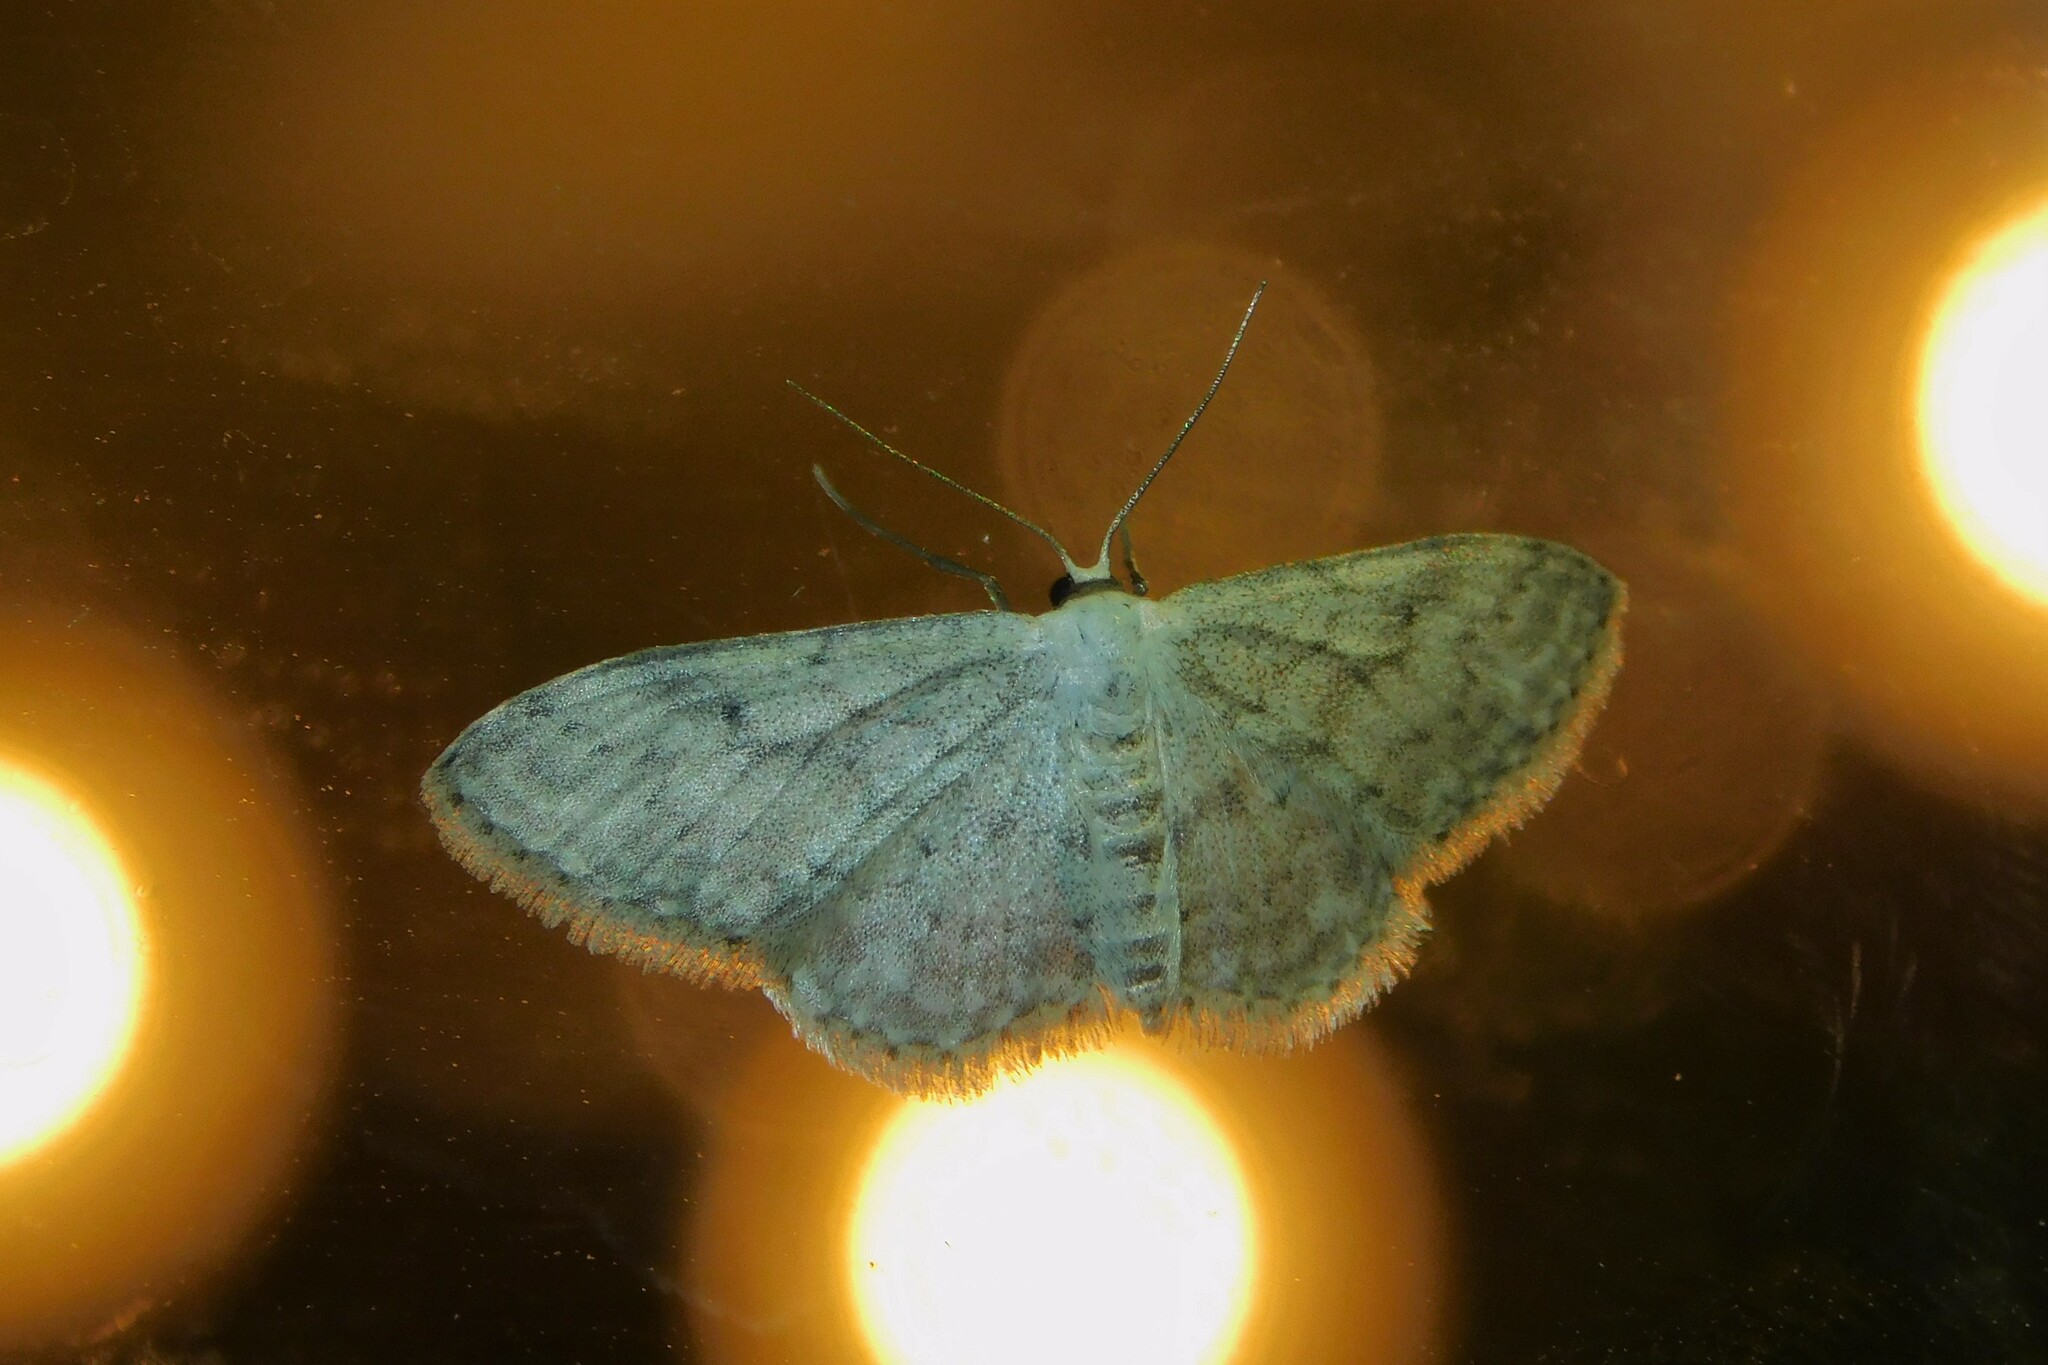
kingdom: Animalia
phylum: Arthropoda
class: Insecta
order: Lepidoptera
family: Geometridae
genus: Idaea
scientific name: Idaea seriata
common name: Small dusty wave
